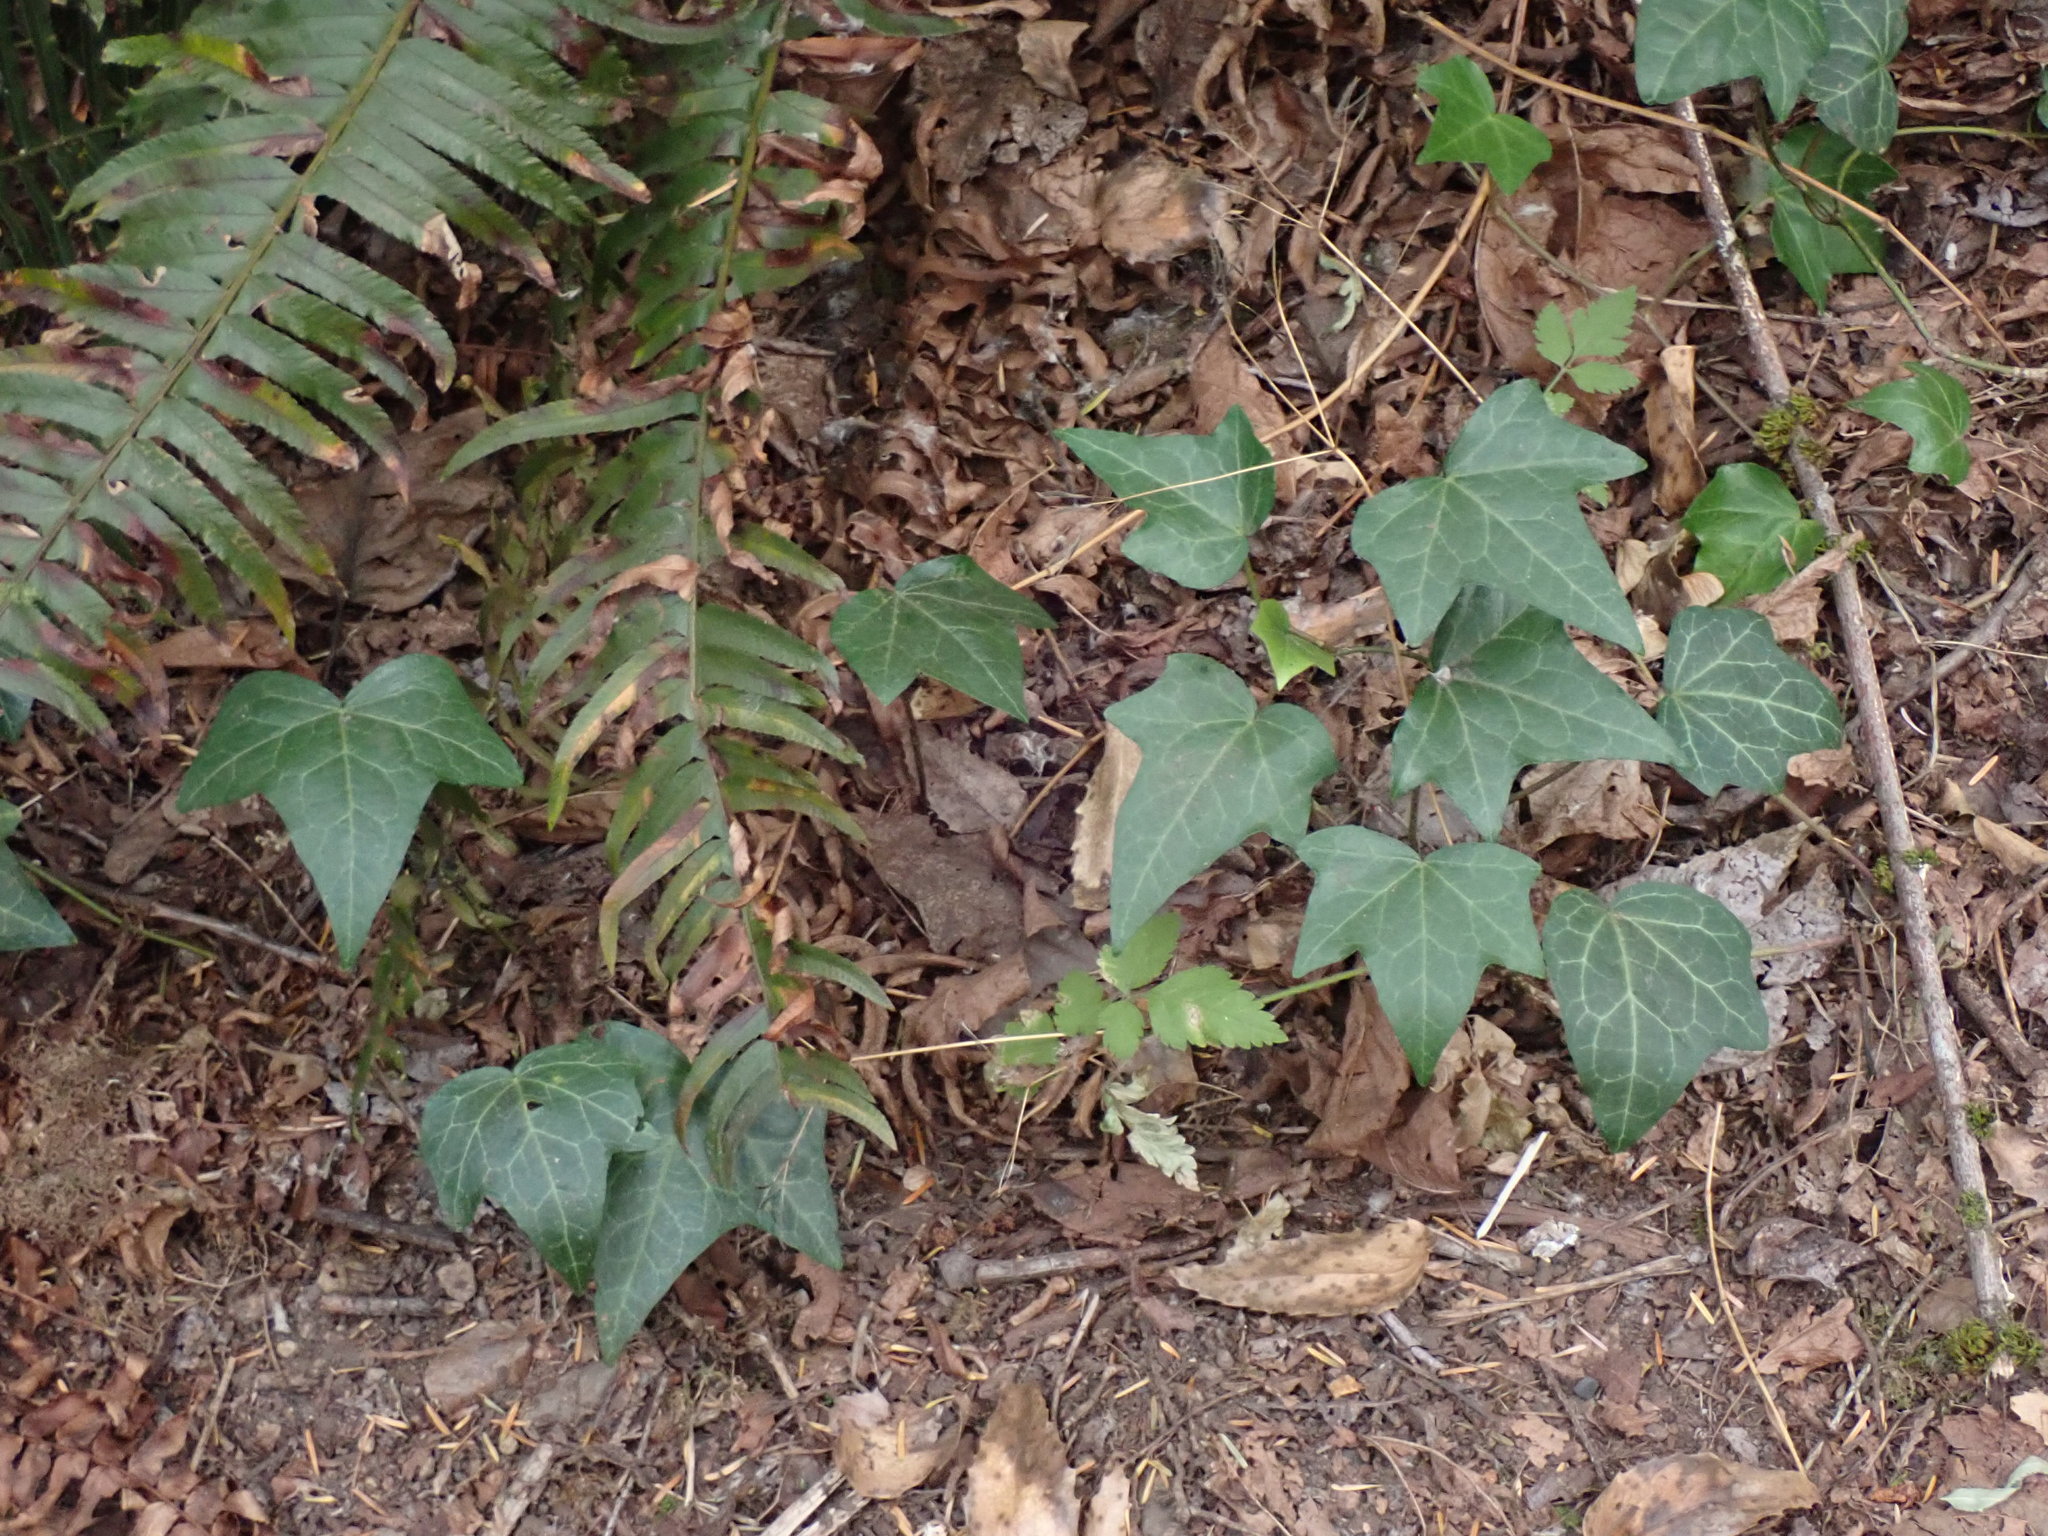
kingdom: Plantae
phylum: Tracheophyta
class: Magnoliopsida
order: Apiales
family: Araliaceae
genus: Hedera
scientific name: Hedera helix
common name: Ivy
